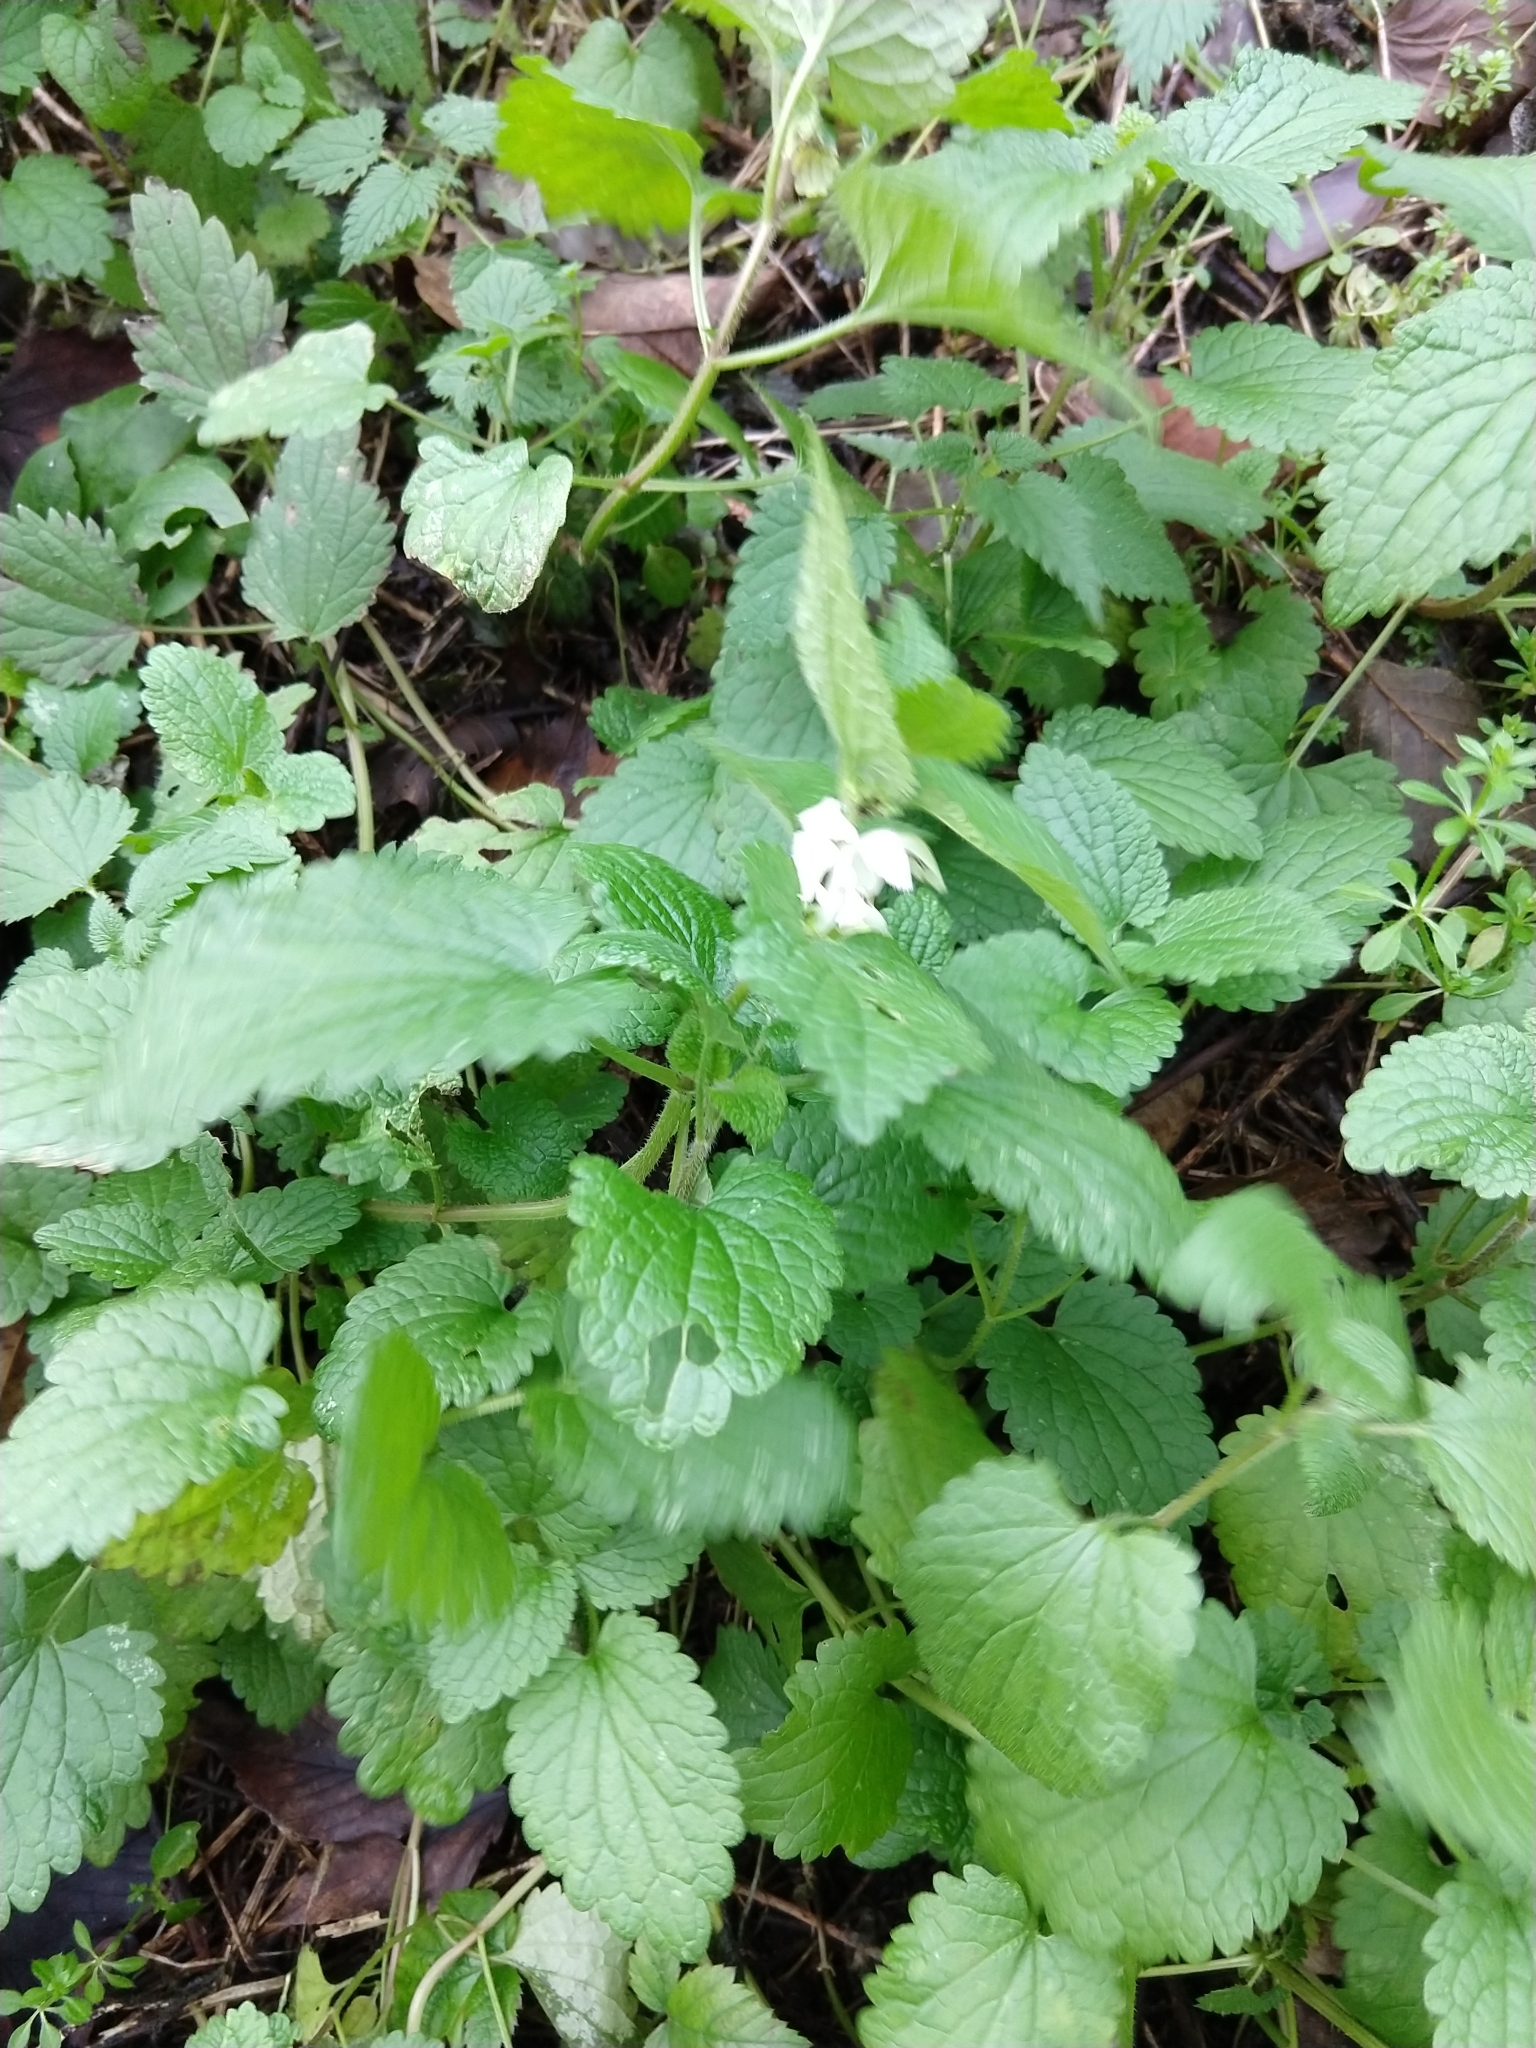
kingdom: Plantae
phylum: Tracheophyta
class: Magnoliopsida
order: Lamiales
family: Lamiaceae
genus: Lamium
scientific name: Lamium album
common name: White dead-nettle
